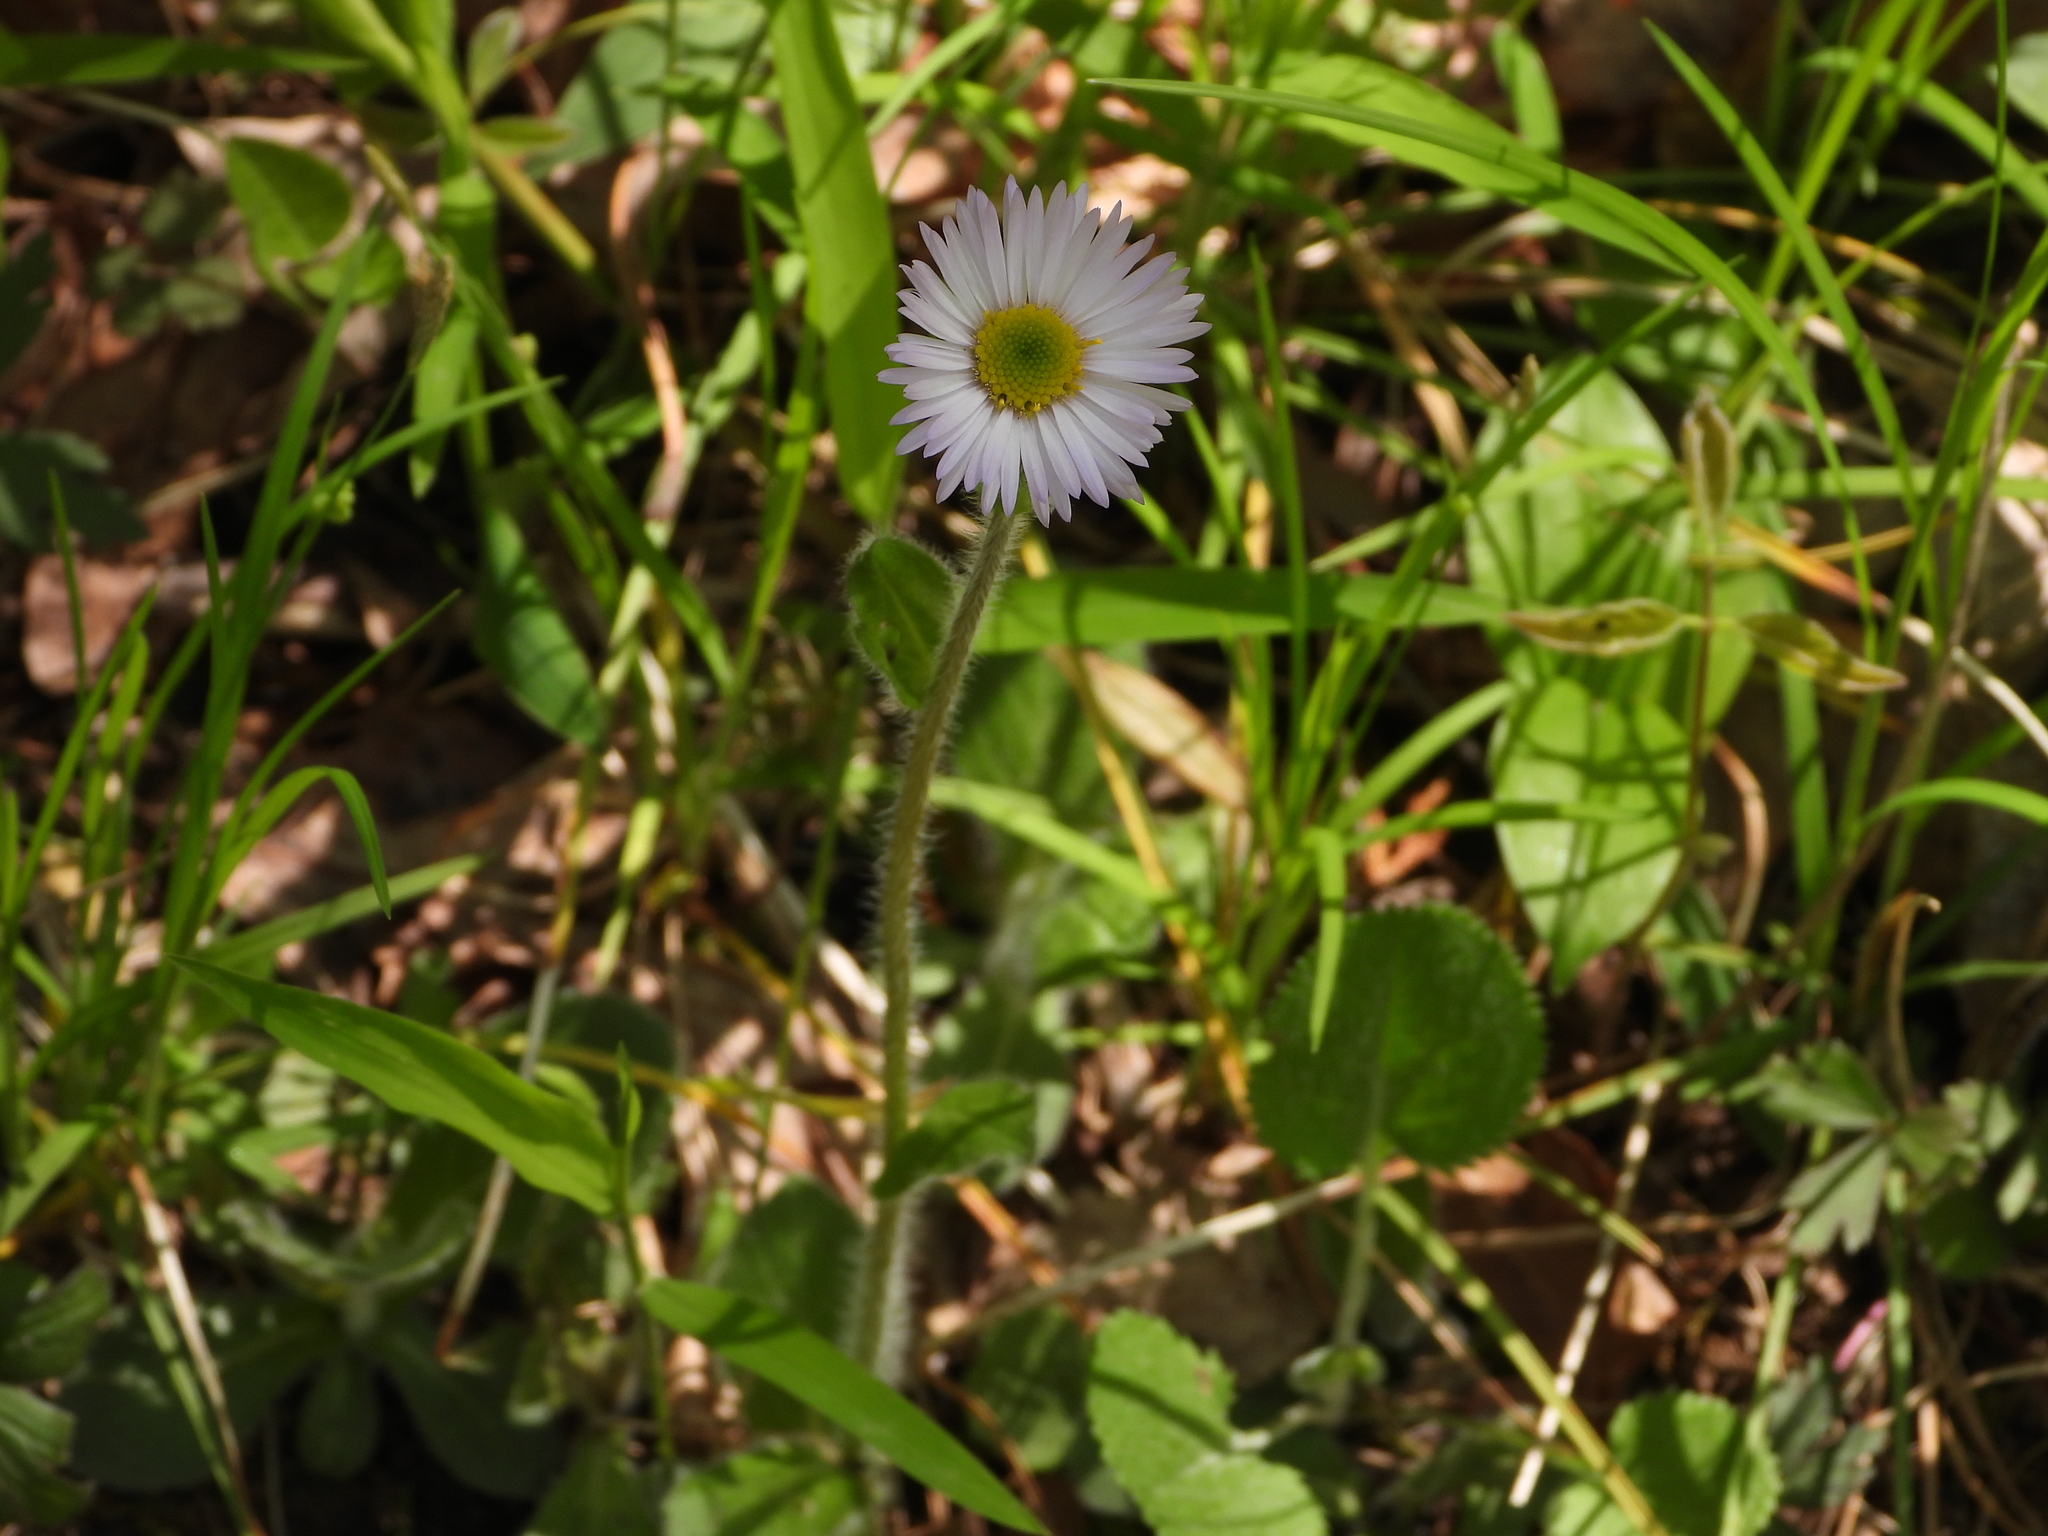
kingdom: Plantae
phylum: Tracheophyta
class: Magnoliopsida
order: Asterales
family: Asteraceae
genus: Erigeron
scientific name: Erigeron pulchellus
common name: Hairy fleabane
